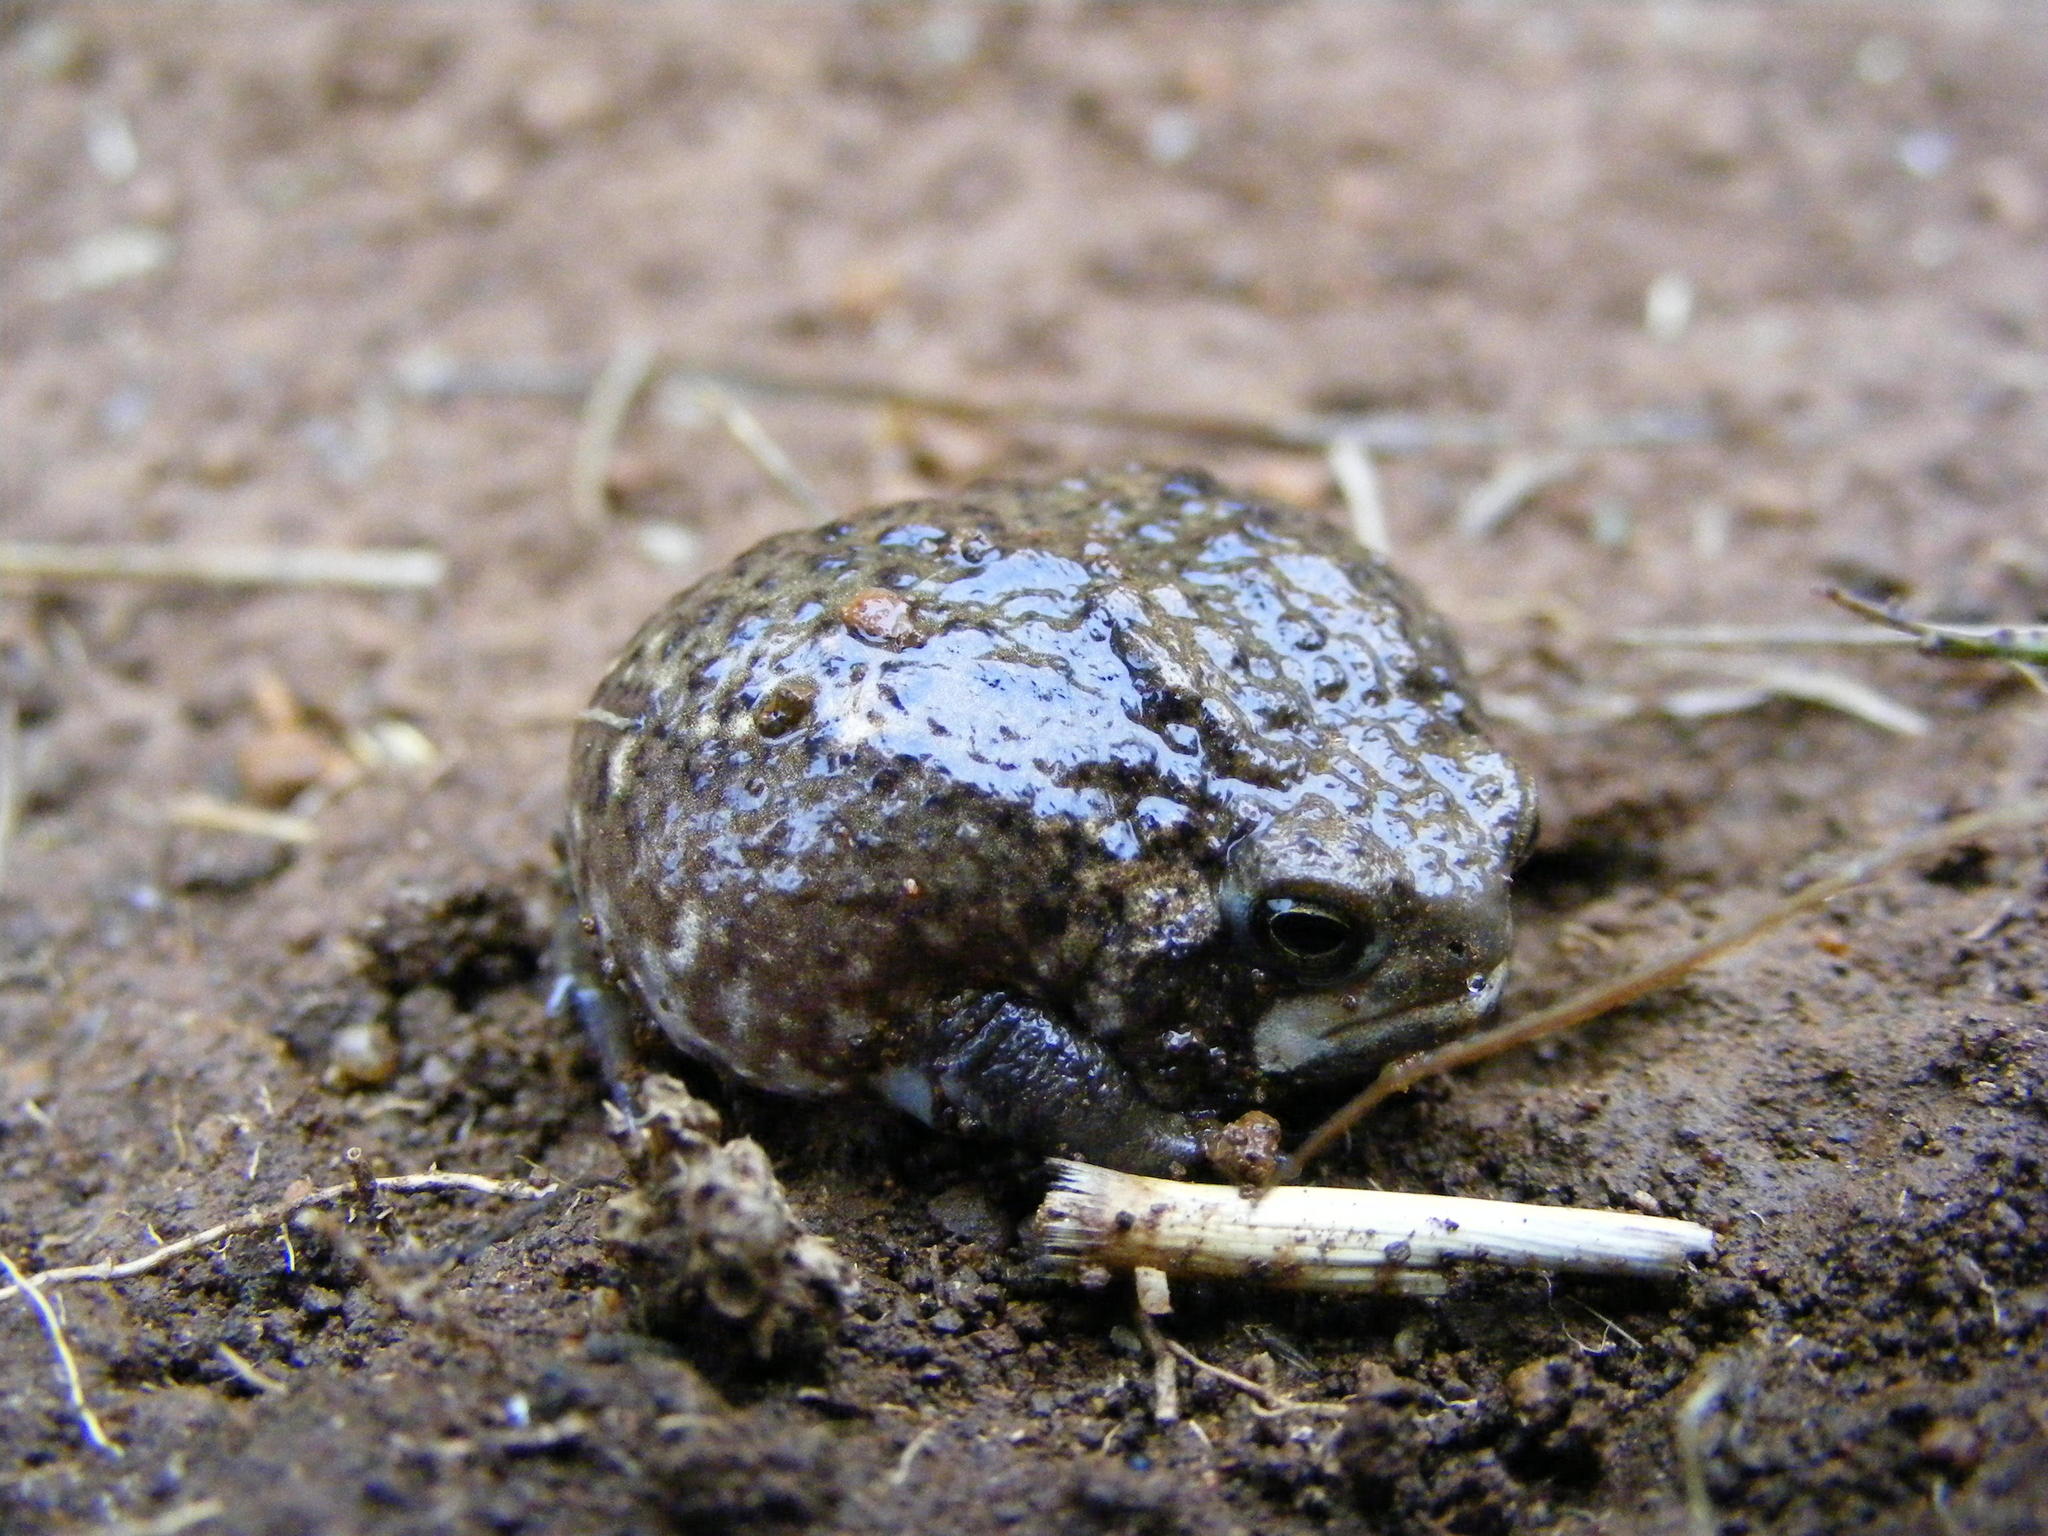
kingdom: Animalia
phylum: Chordata
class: Amphibia
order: Anura
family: Brevicipitidae
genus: Breviceps
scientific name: Breviceps verrucosus
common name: Plaintive rain frog
